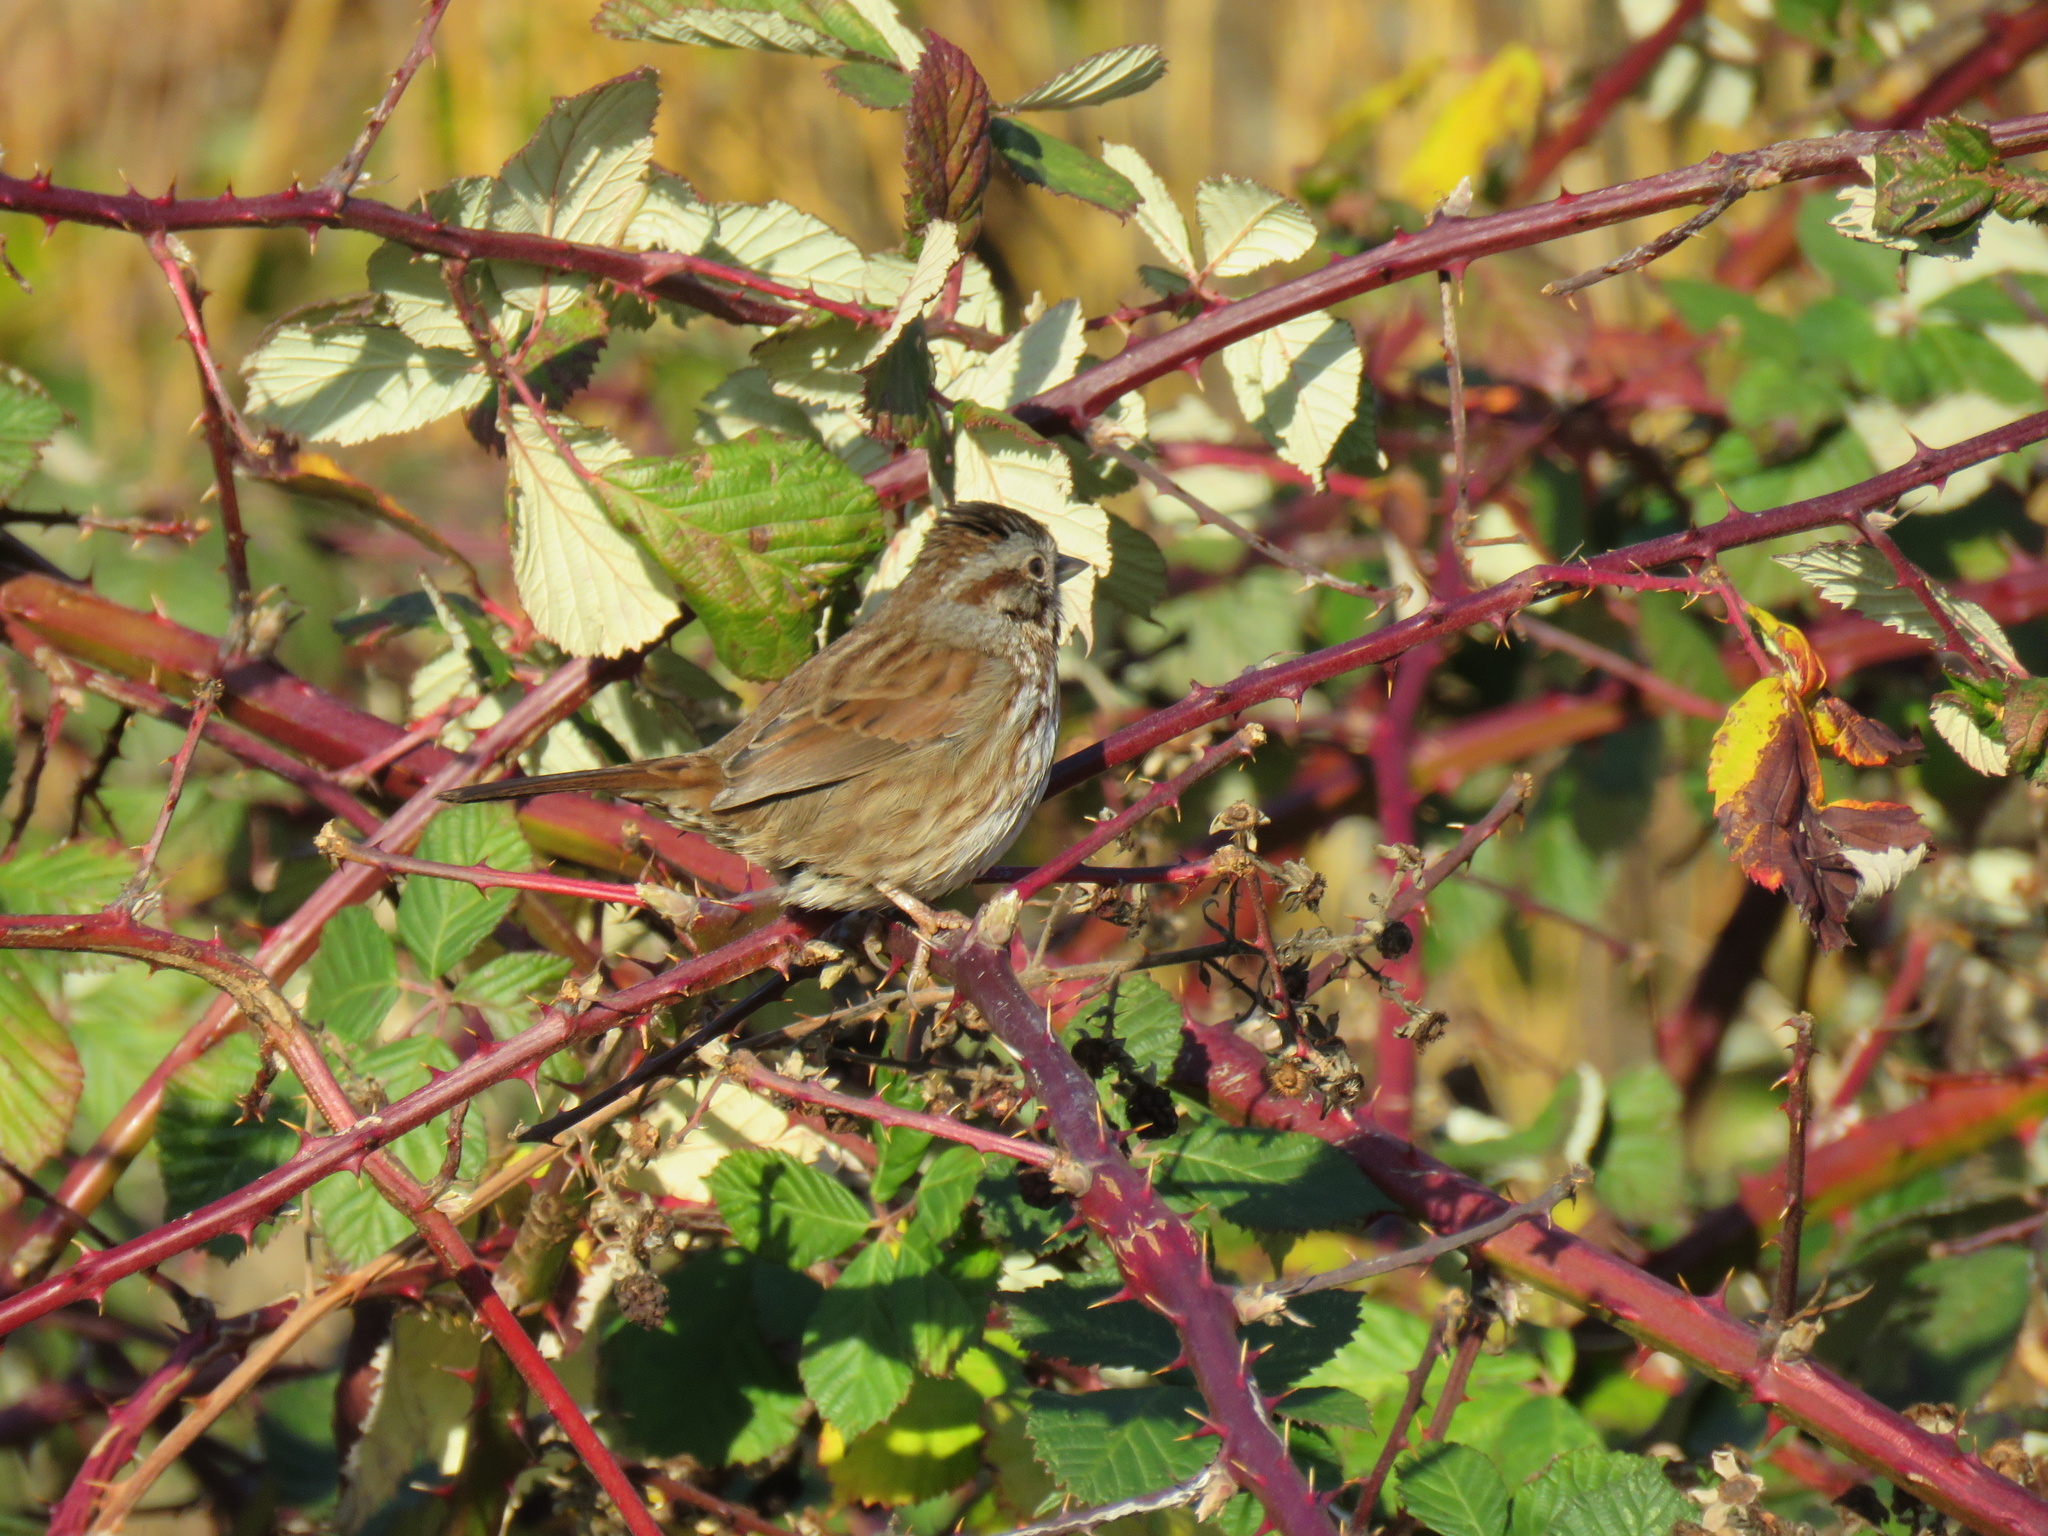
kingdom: Animalia
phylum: Chordata
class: Aves
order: Passeriformes
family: Passerellidae
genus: Melospiza
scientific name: Melospiza melodia
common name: Song sparrow
